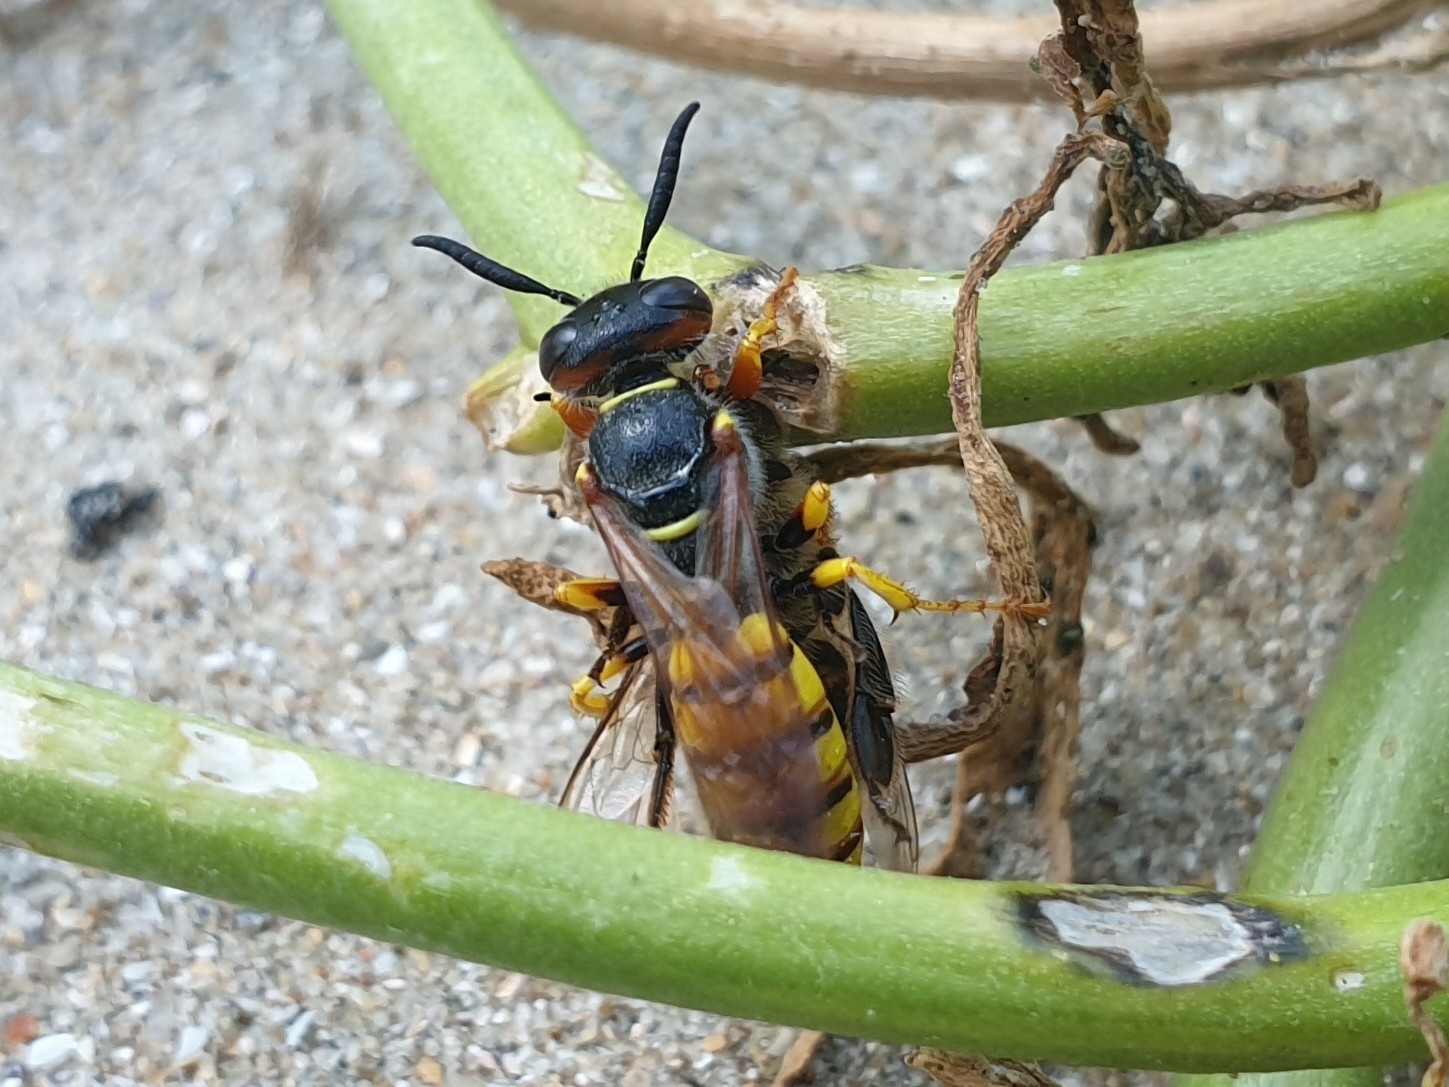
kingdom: Animalia
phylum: Arthropoda
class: Insecta
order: Hymenoptera
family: Crabronidae
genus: Philanthus
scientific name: Philanthus triangulum
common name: Bee wolf
